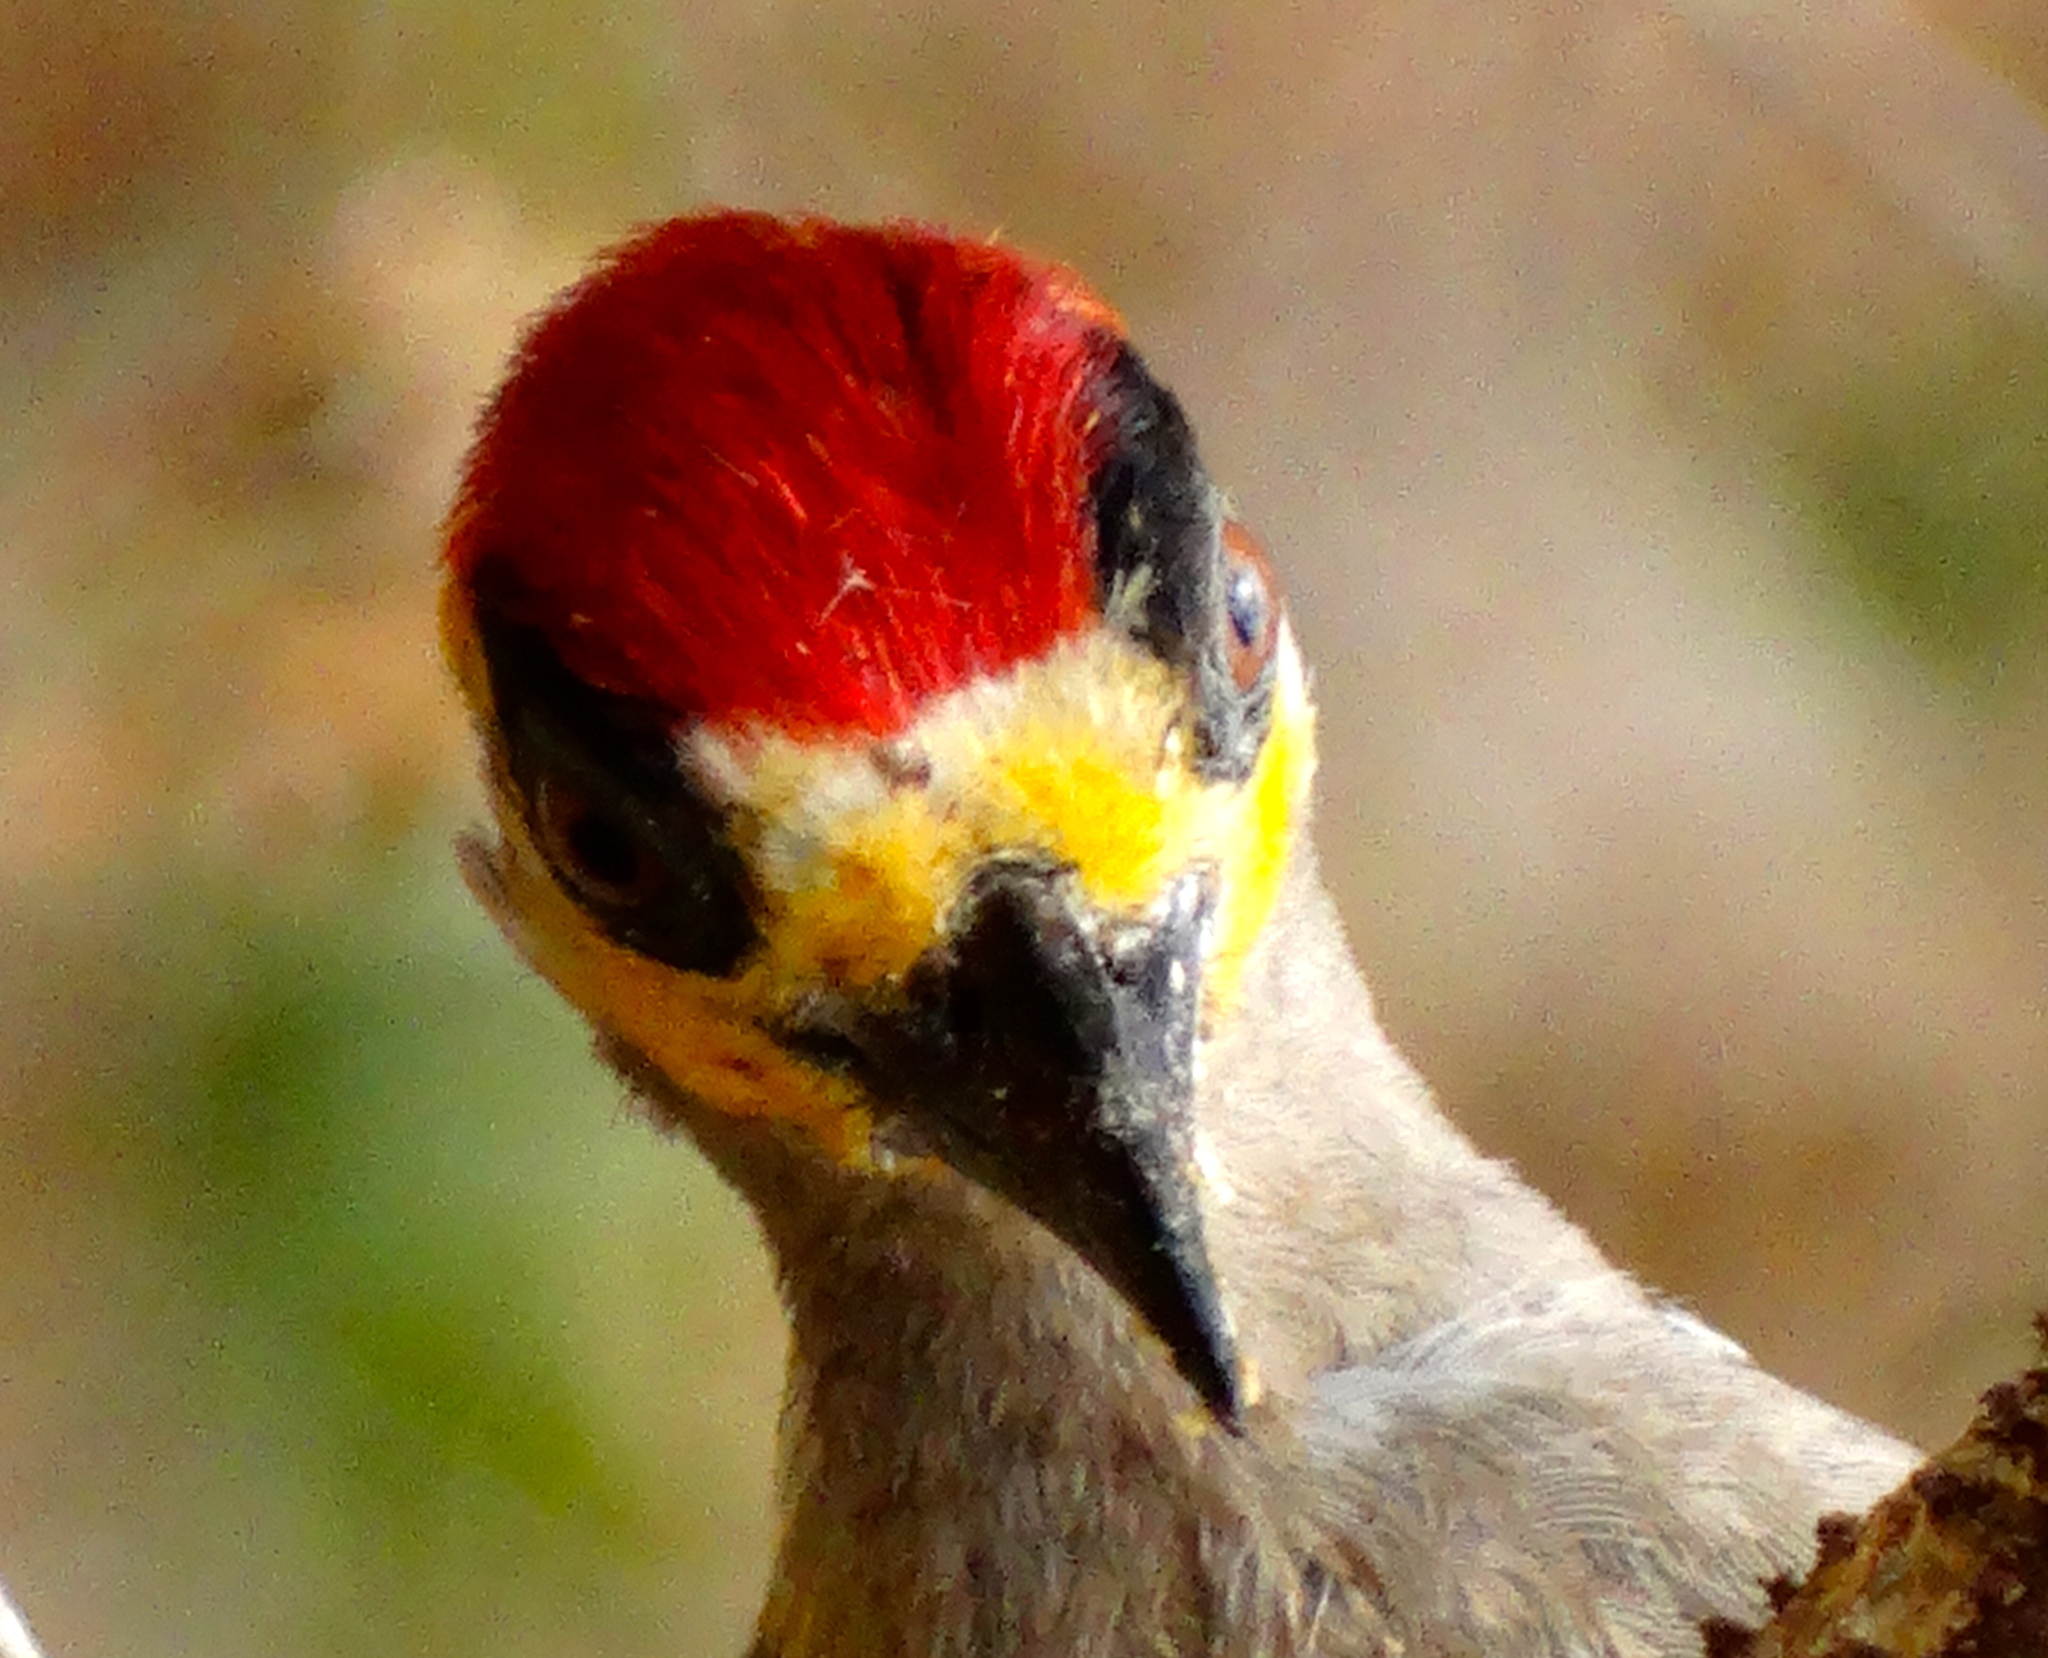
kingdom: Animalia
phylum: Chordata
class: Aves
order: Piciformes
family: Picidae
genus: Melanerpes
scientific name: Melanerpes chrysogenys
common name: Golden-cheeked woodpecker
